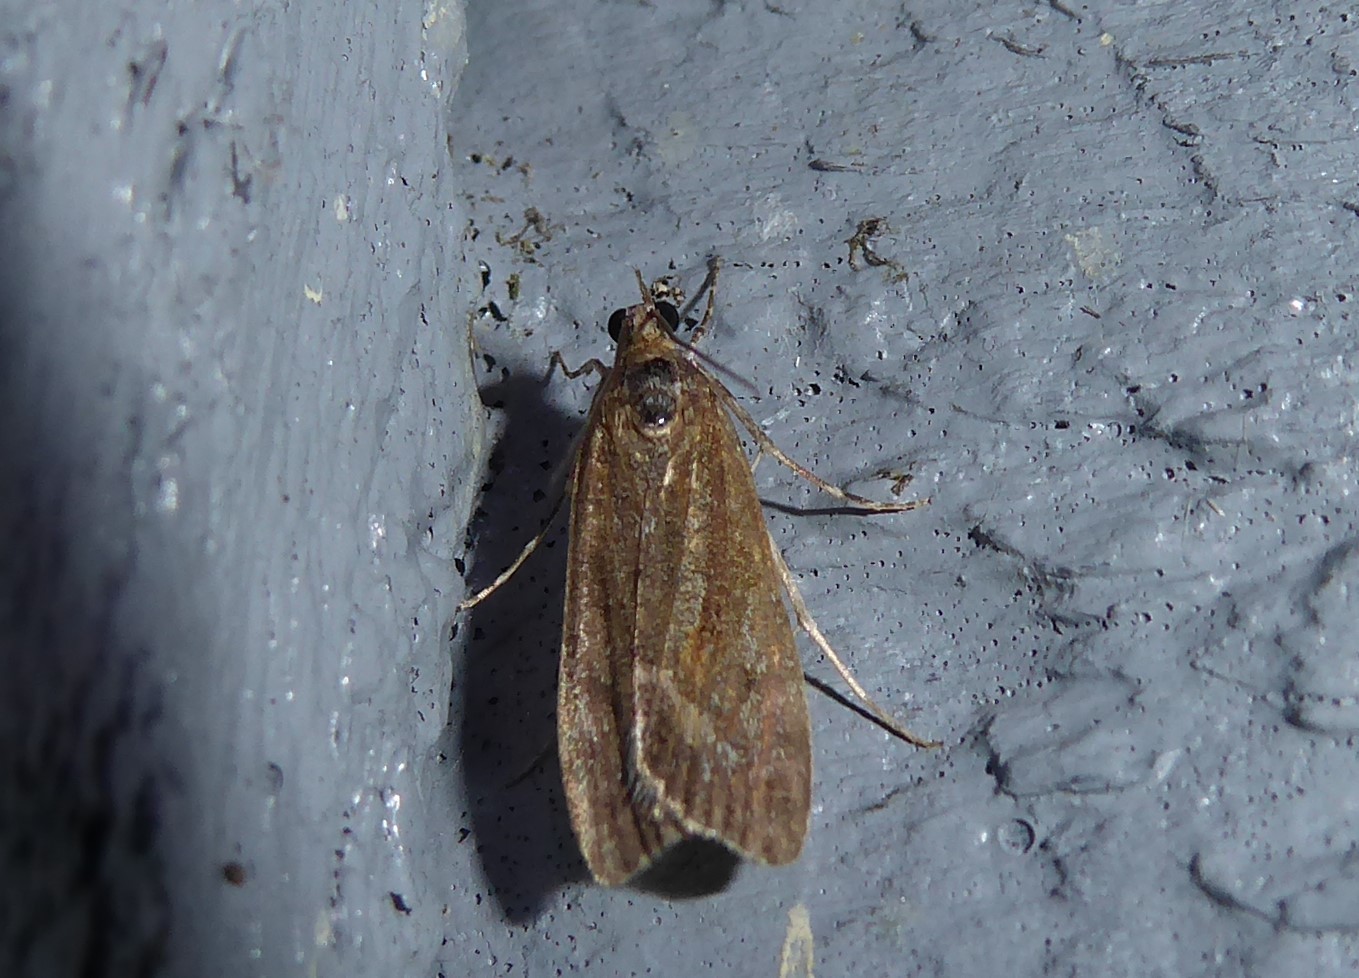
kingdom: Animalia
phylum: Arthropoda
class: Insecta
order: Lepidoptera
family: Crambidae
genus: Eudonia
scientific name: Eudonia submarginalis
